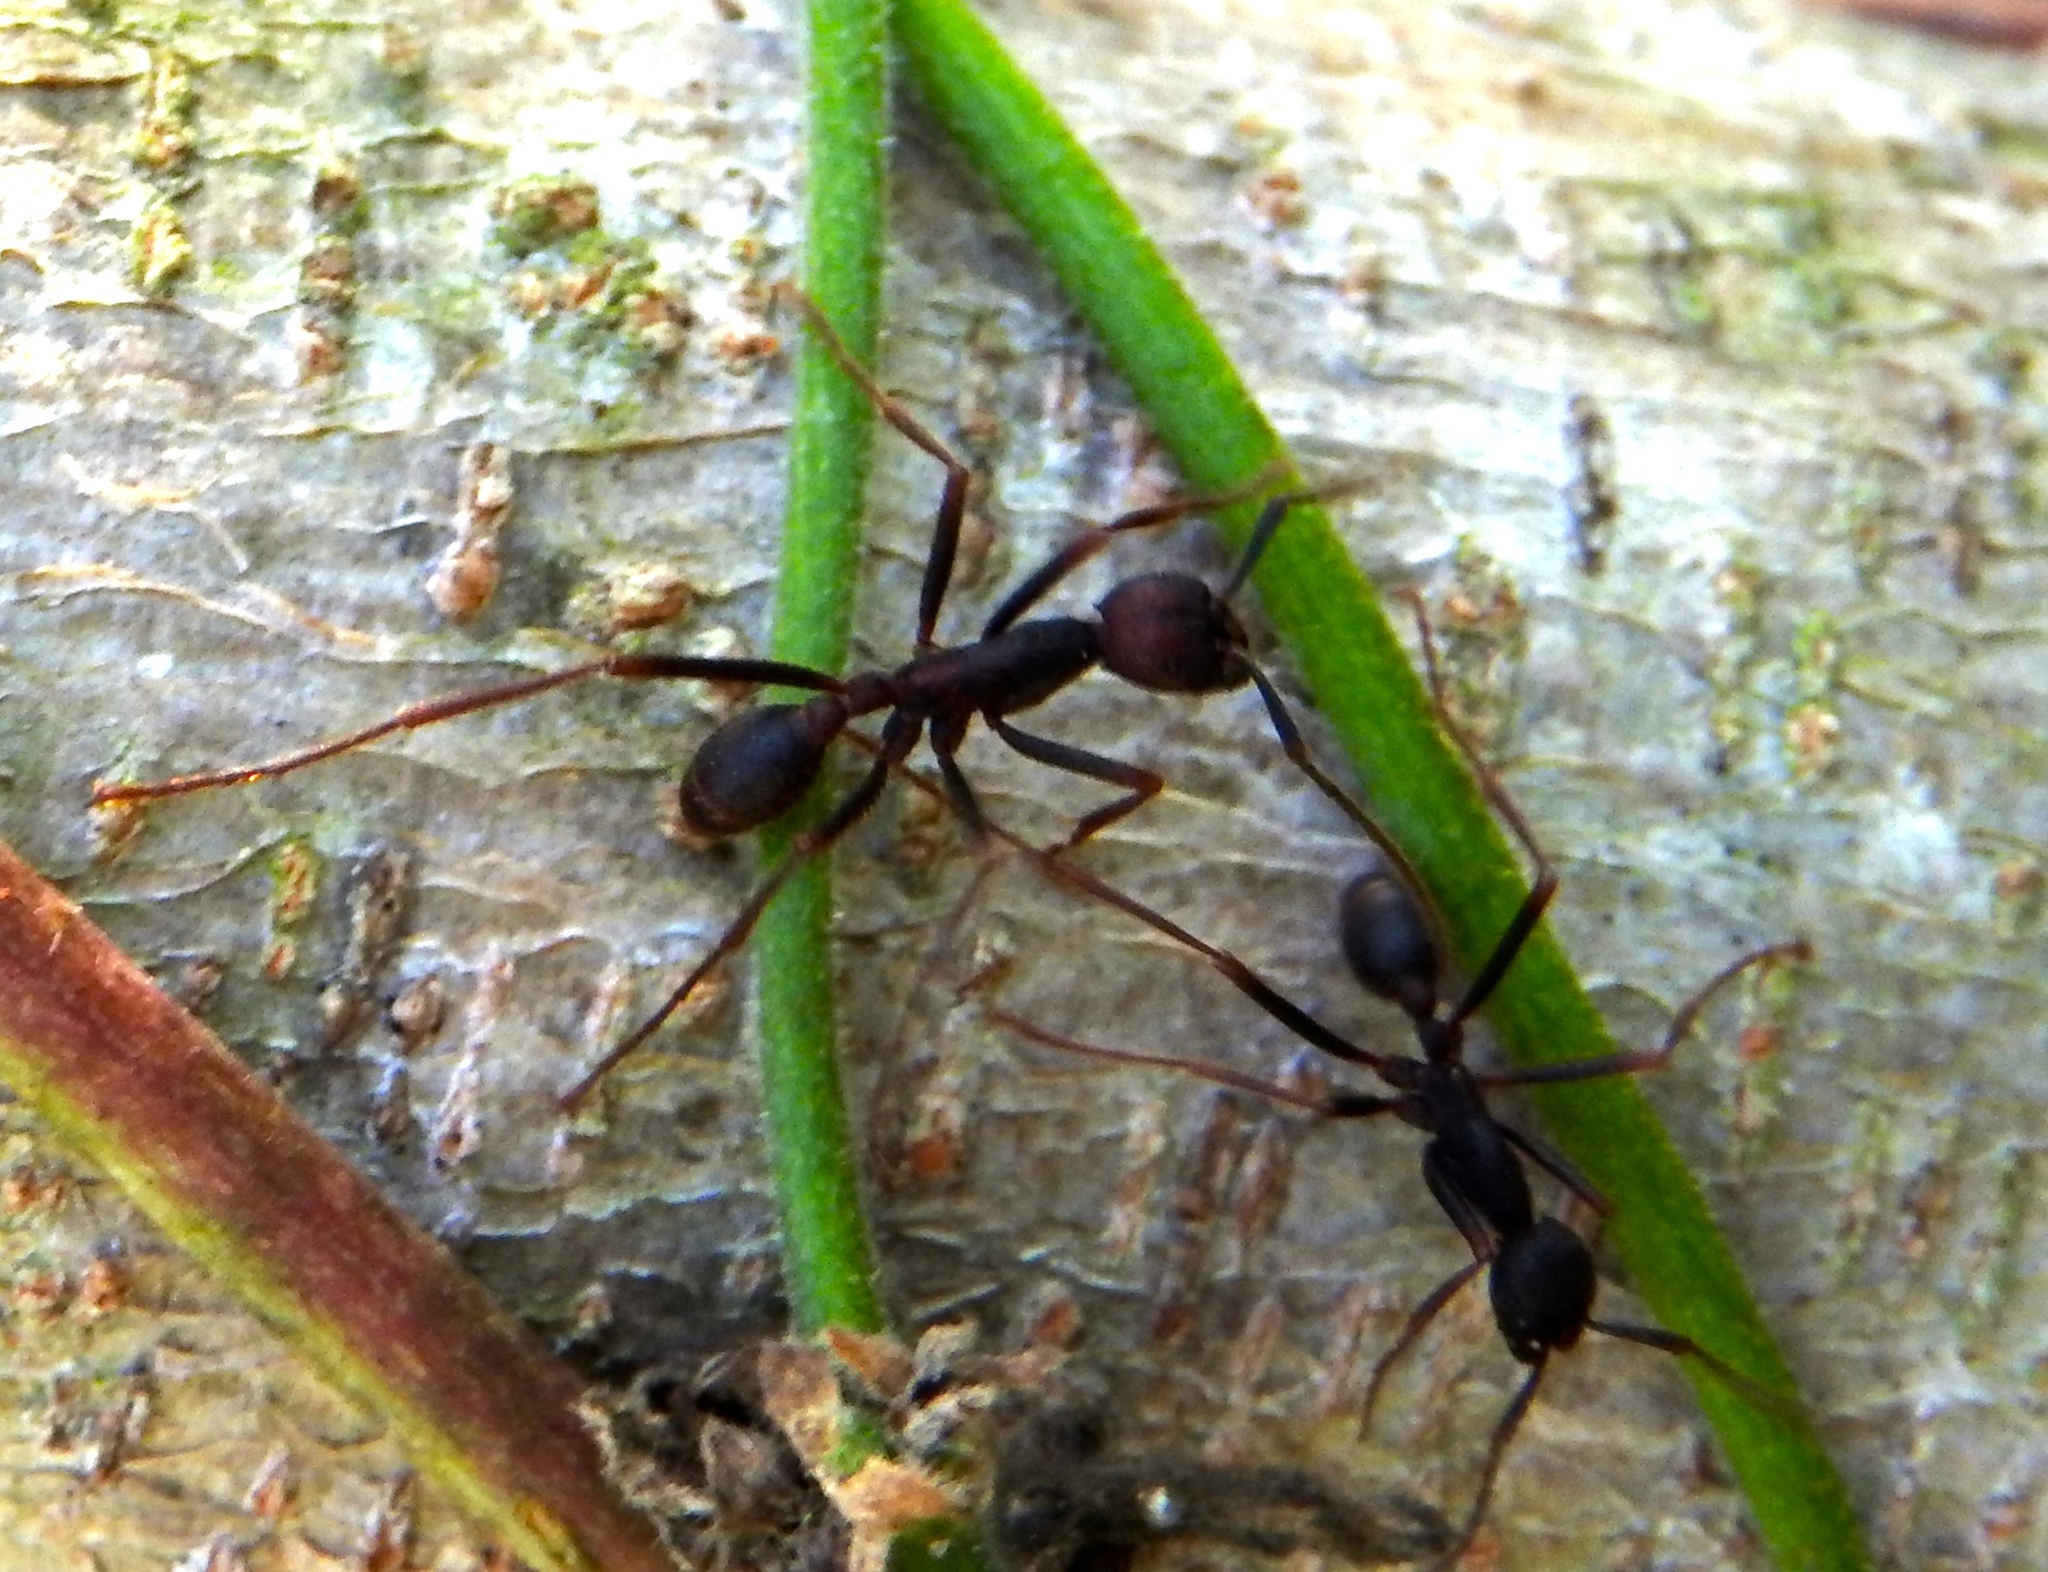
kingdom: Animalia
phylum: Arthropoda
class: Insecta
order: Hymenoptera
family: Formicidae
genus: Eciton
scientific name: Eciton burchellii
